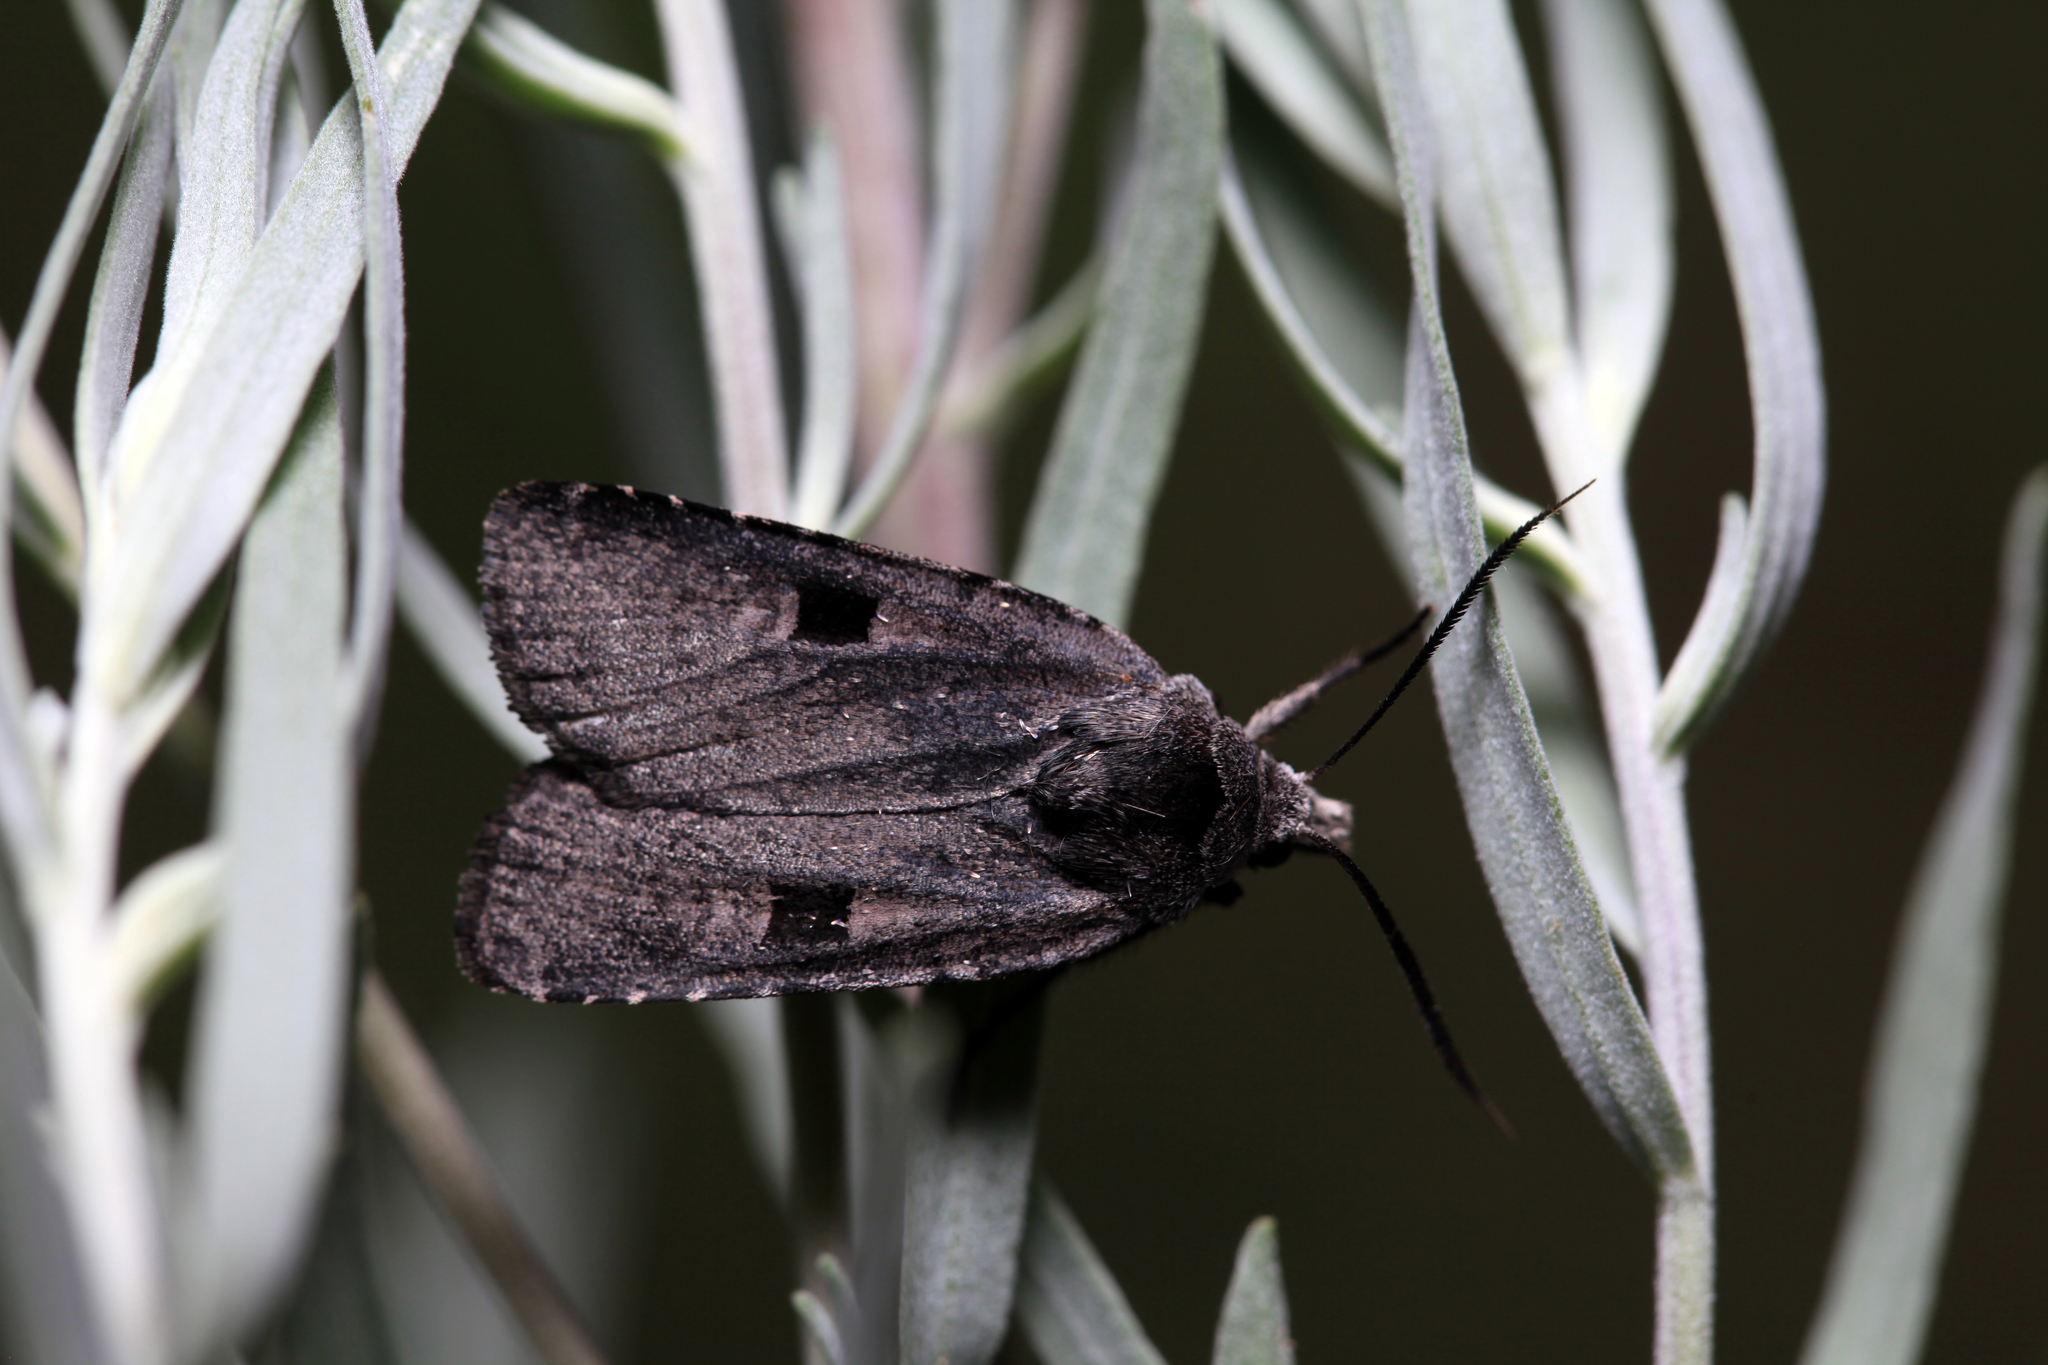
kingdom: Animalia
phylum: Arthropoda
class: Insecta
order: Lepidoptera
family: Noctuidae
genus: Netrocerocora
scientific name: Netrocerocora quadrangula
